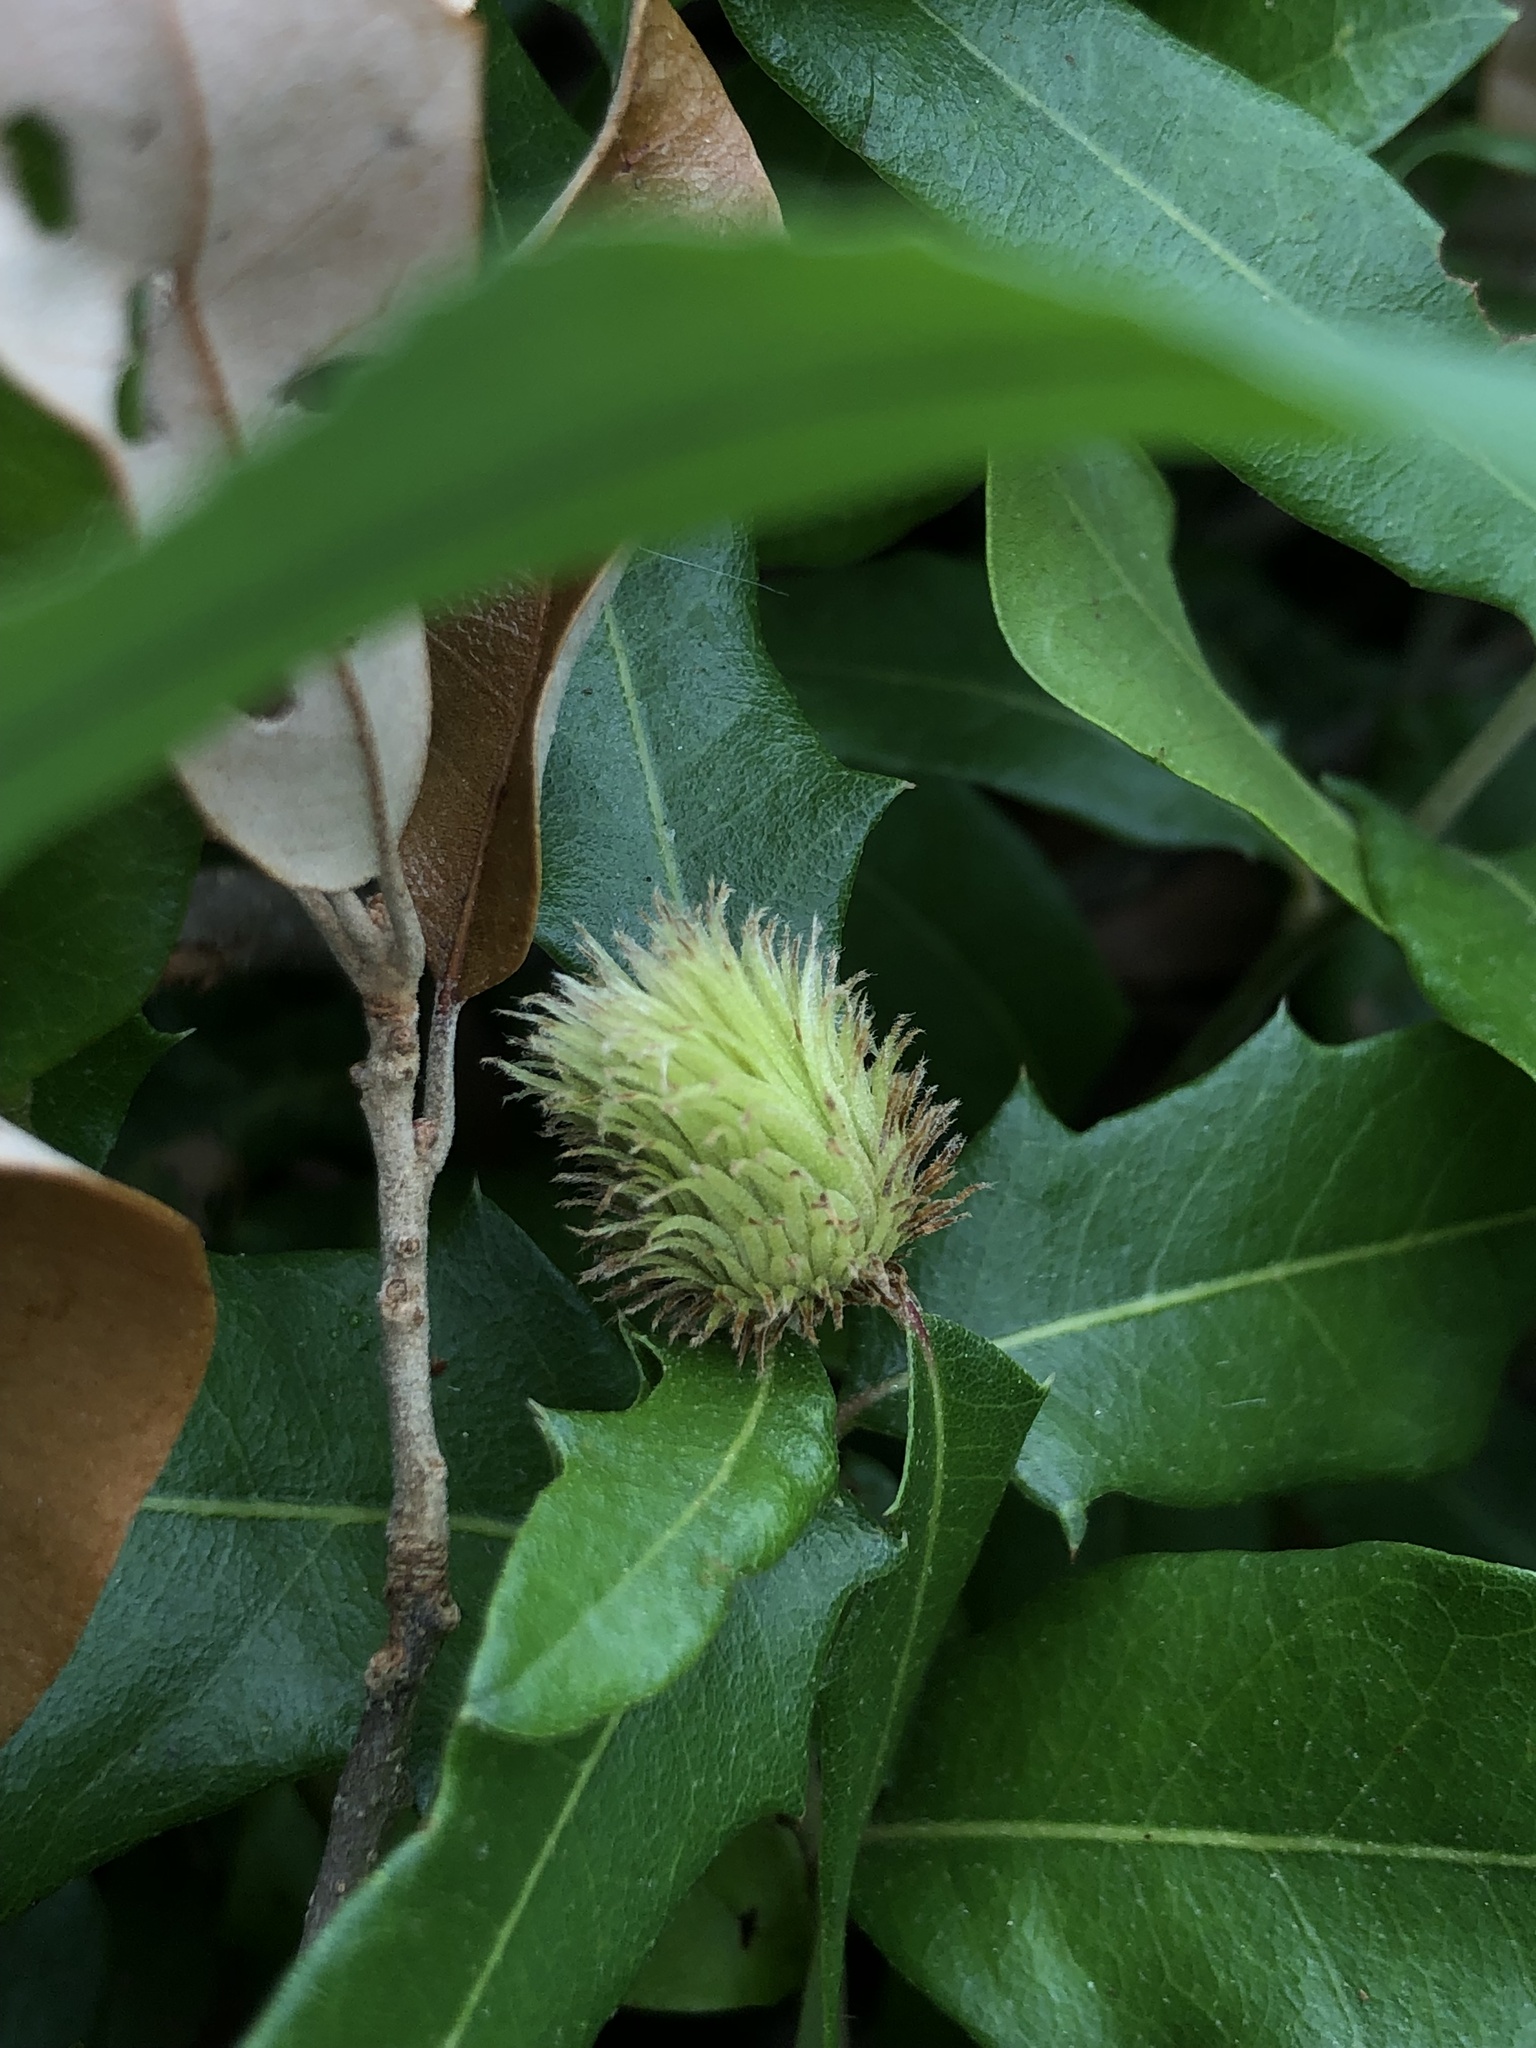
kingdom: Animalia
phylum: Arthropoda
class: Insecta
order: Hymenoptera
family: Cynipidae
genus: Andricus
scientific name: Andricus quercusfoliatus
